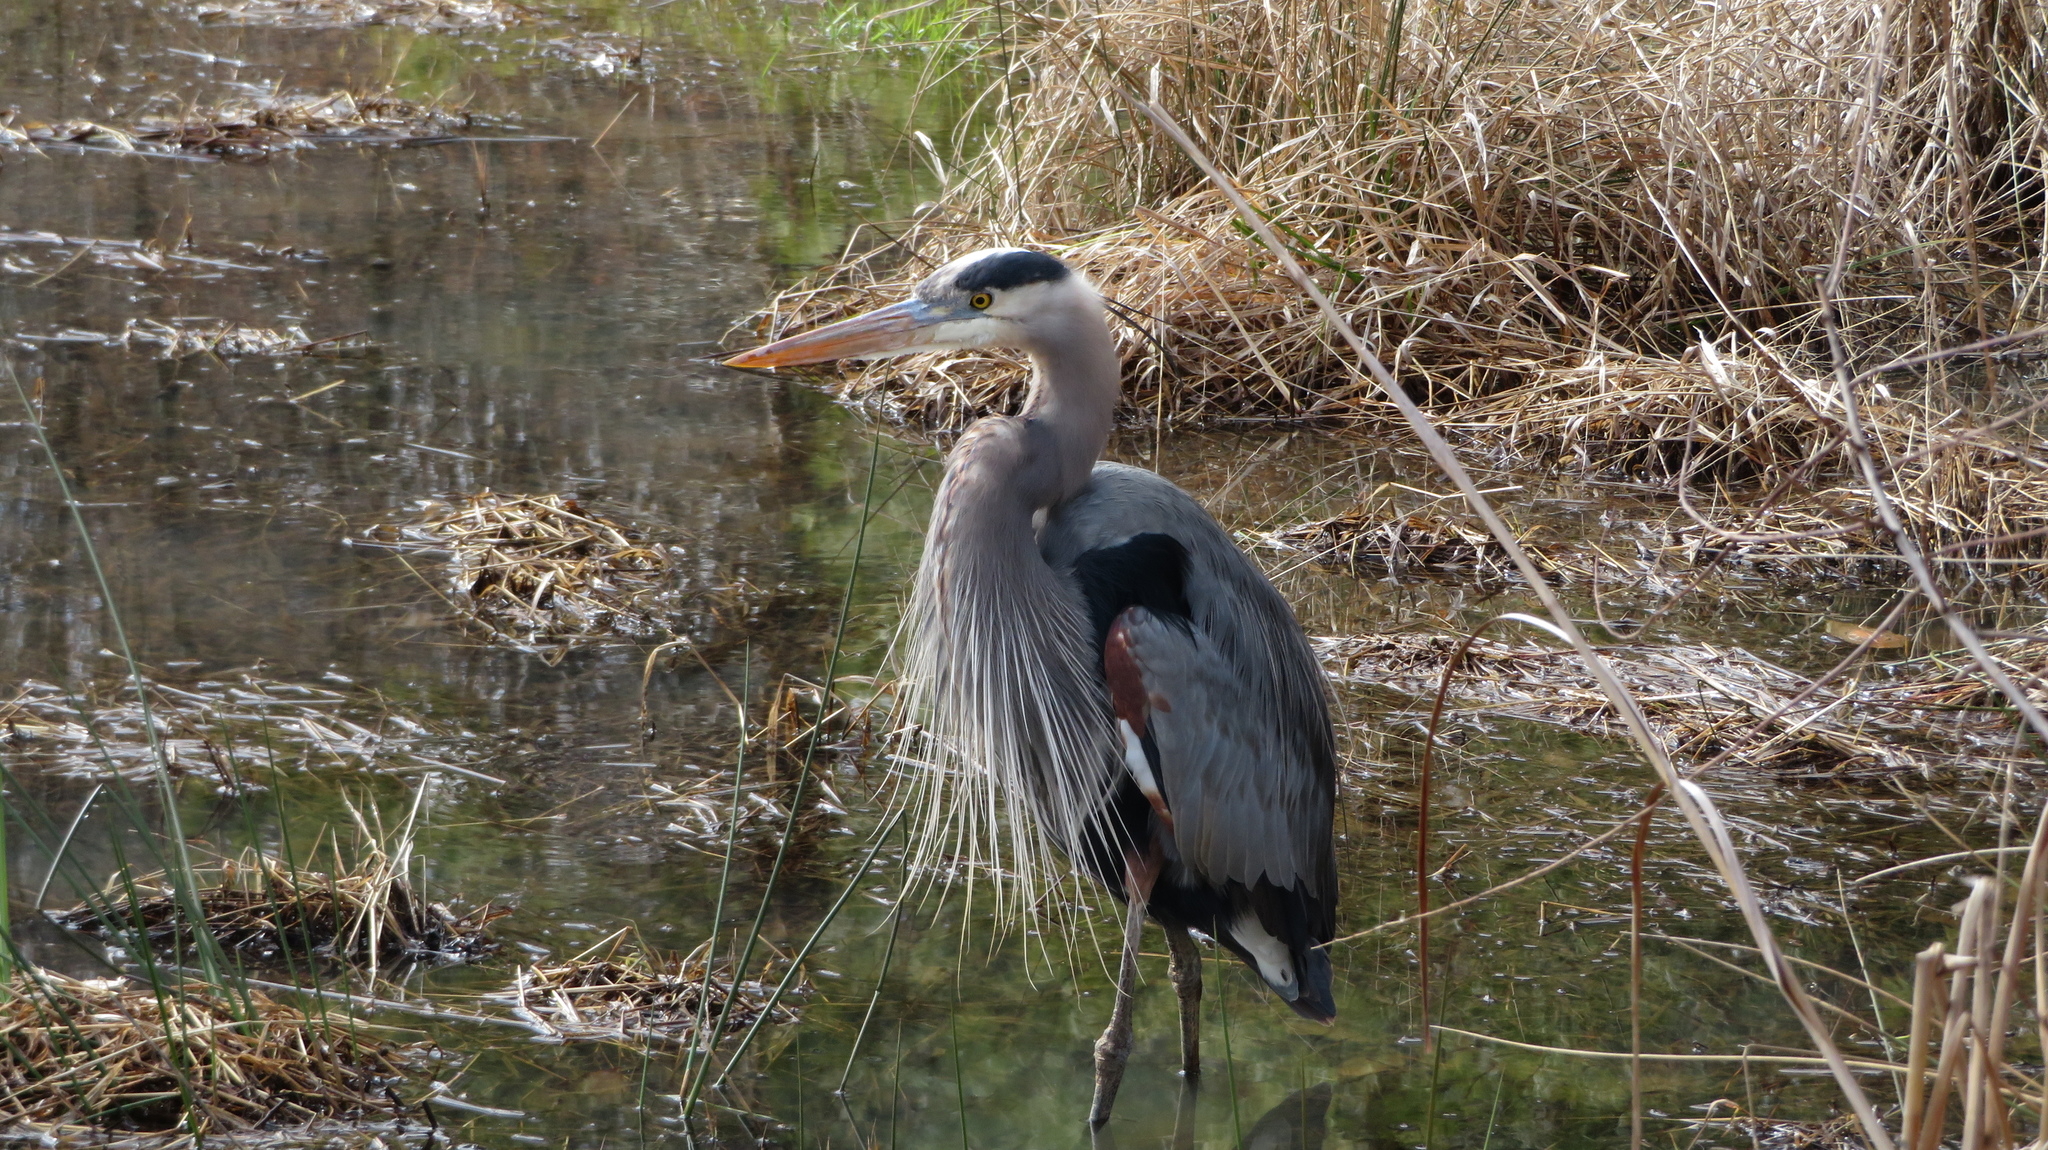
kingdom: Animalia
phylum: Chordata
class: Aves
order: Pelecaniformes
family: Ardeidae
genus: Ardea
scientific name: Ardea herodias
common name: Great blue heron
